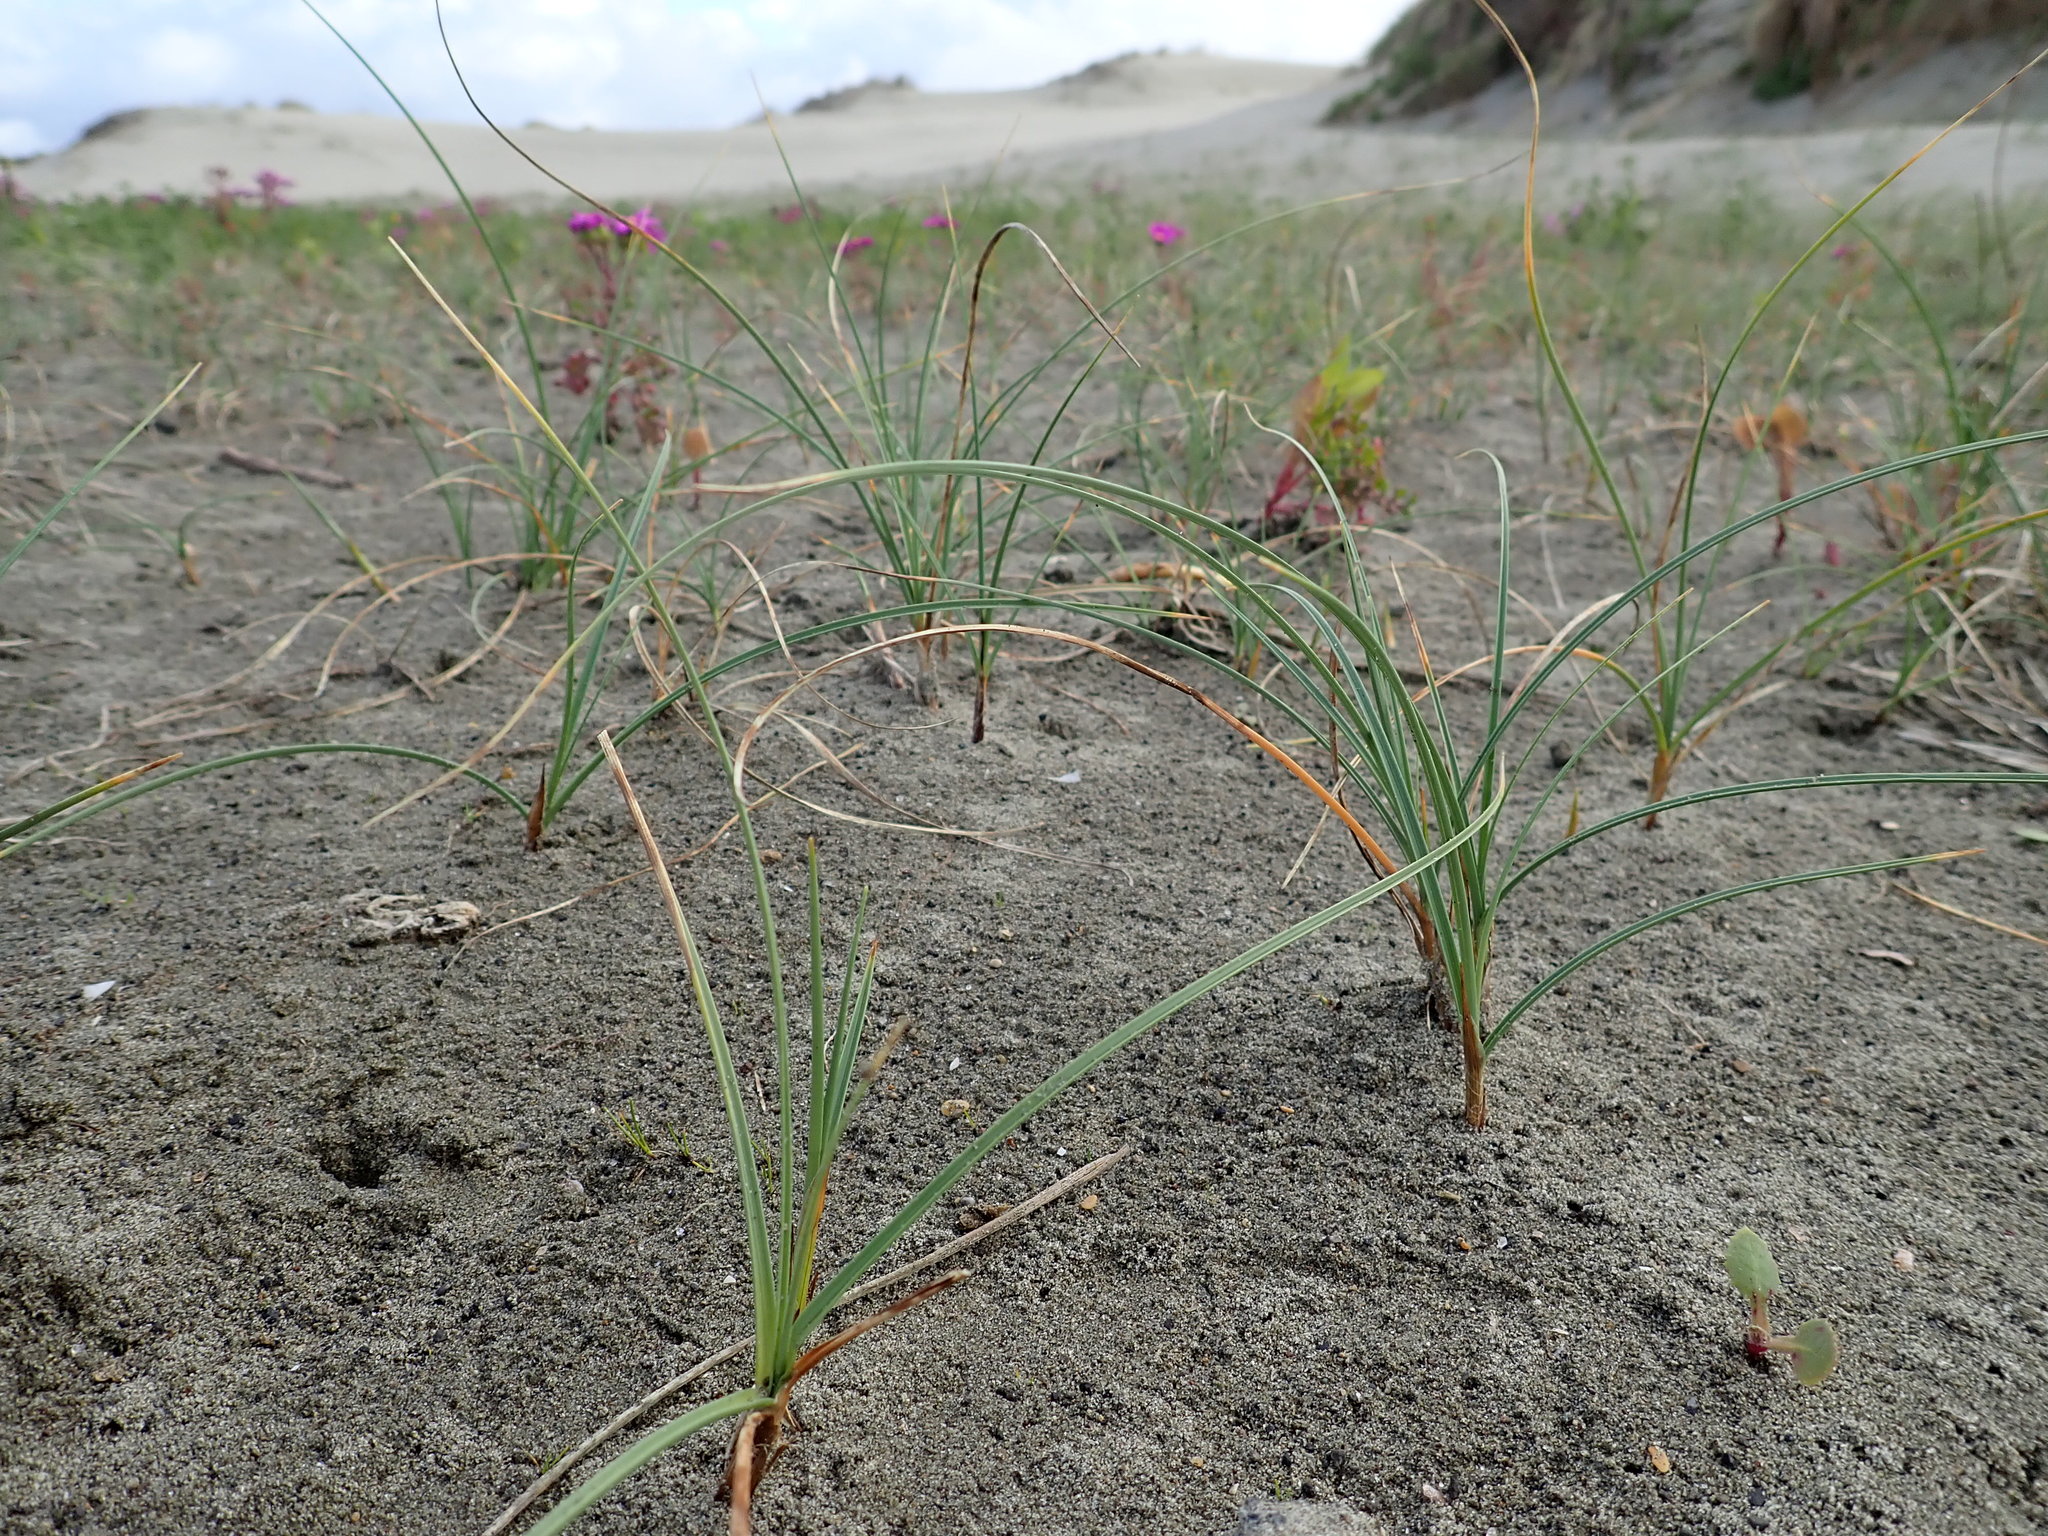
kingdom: Plantae
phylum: Tracheophyta
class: Liliopsida
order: Poales
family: Cyperaceae
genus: Carex
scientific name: Carex pumila
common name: Dwarf sedge
